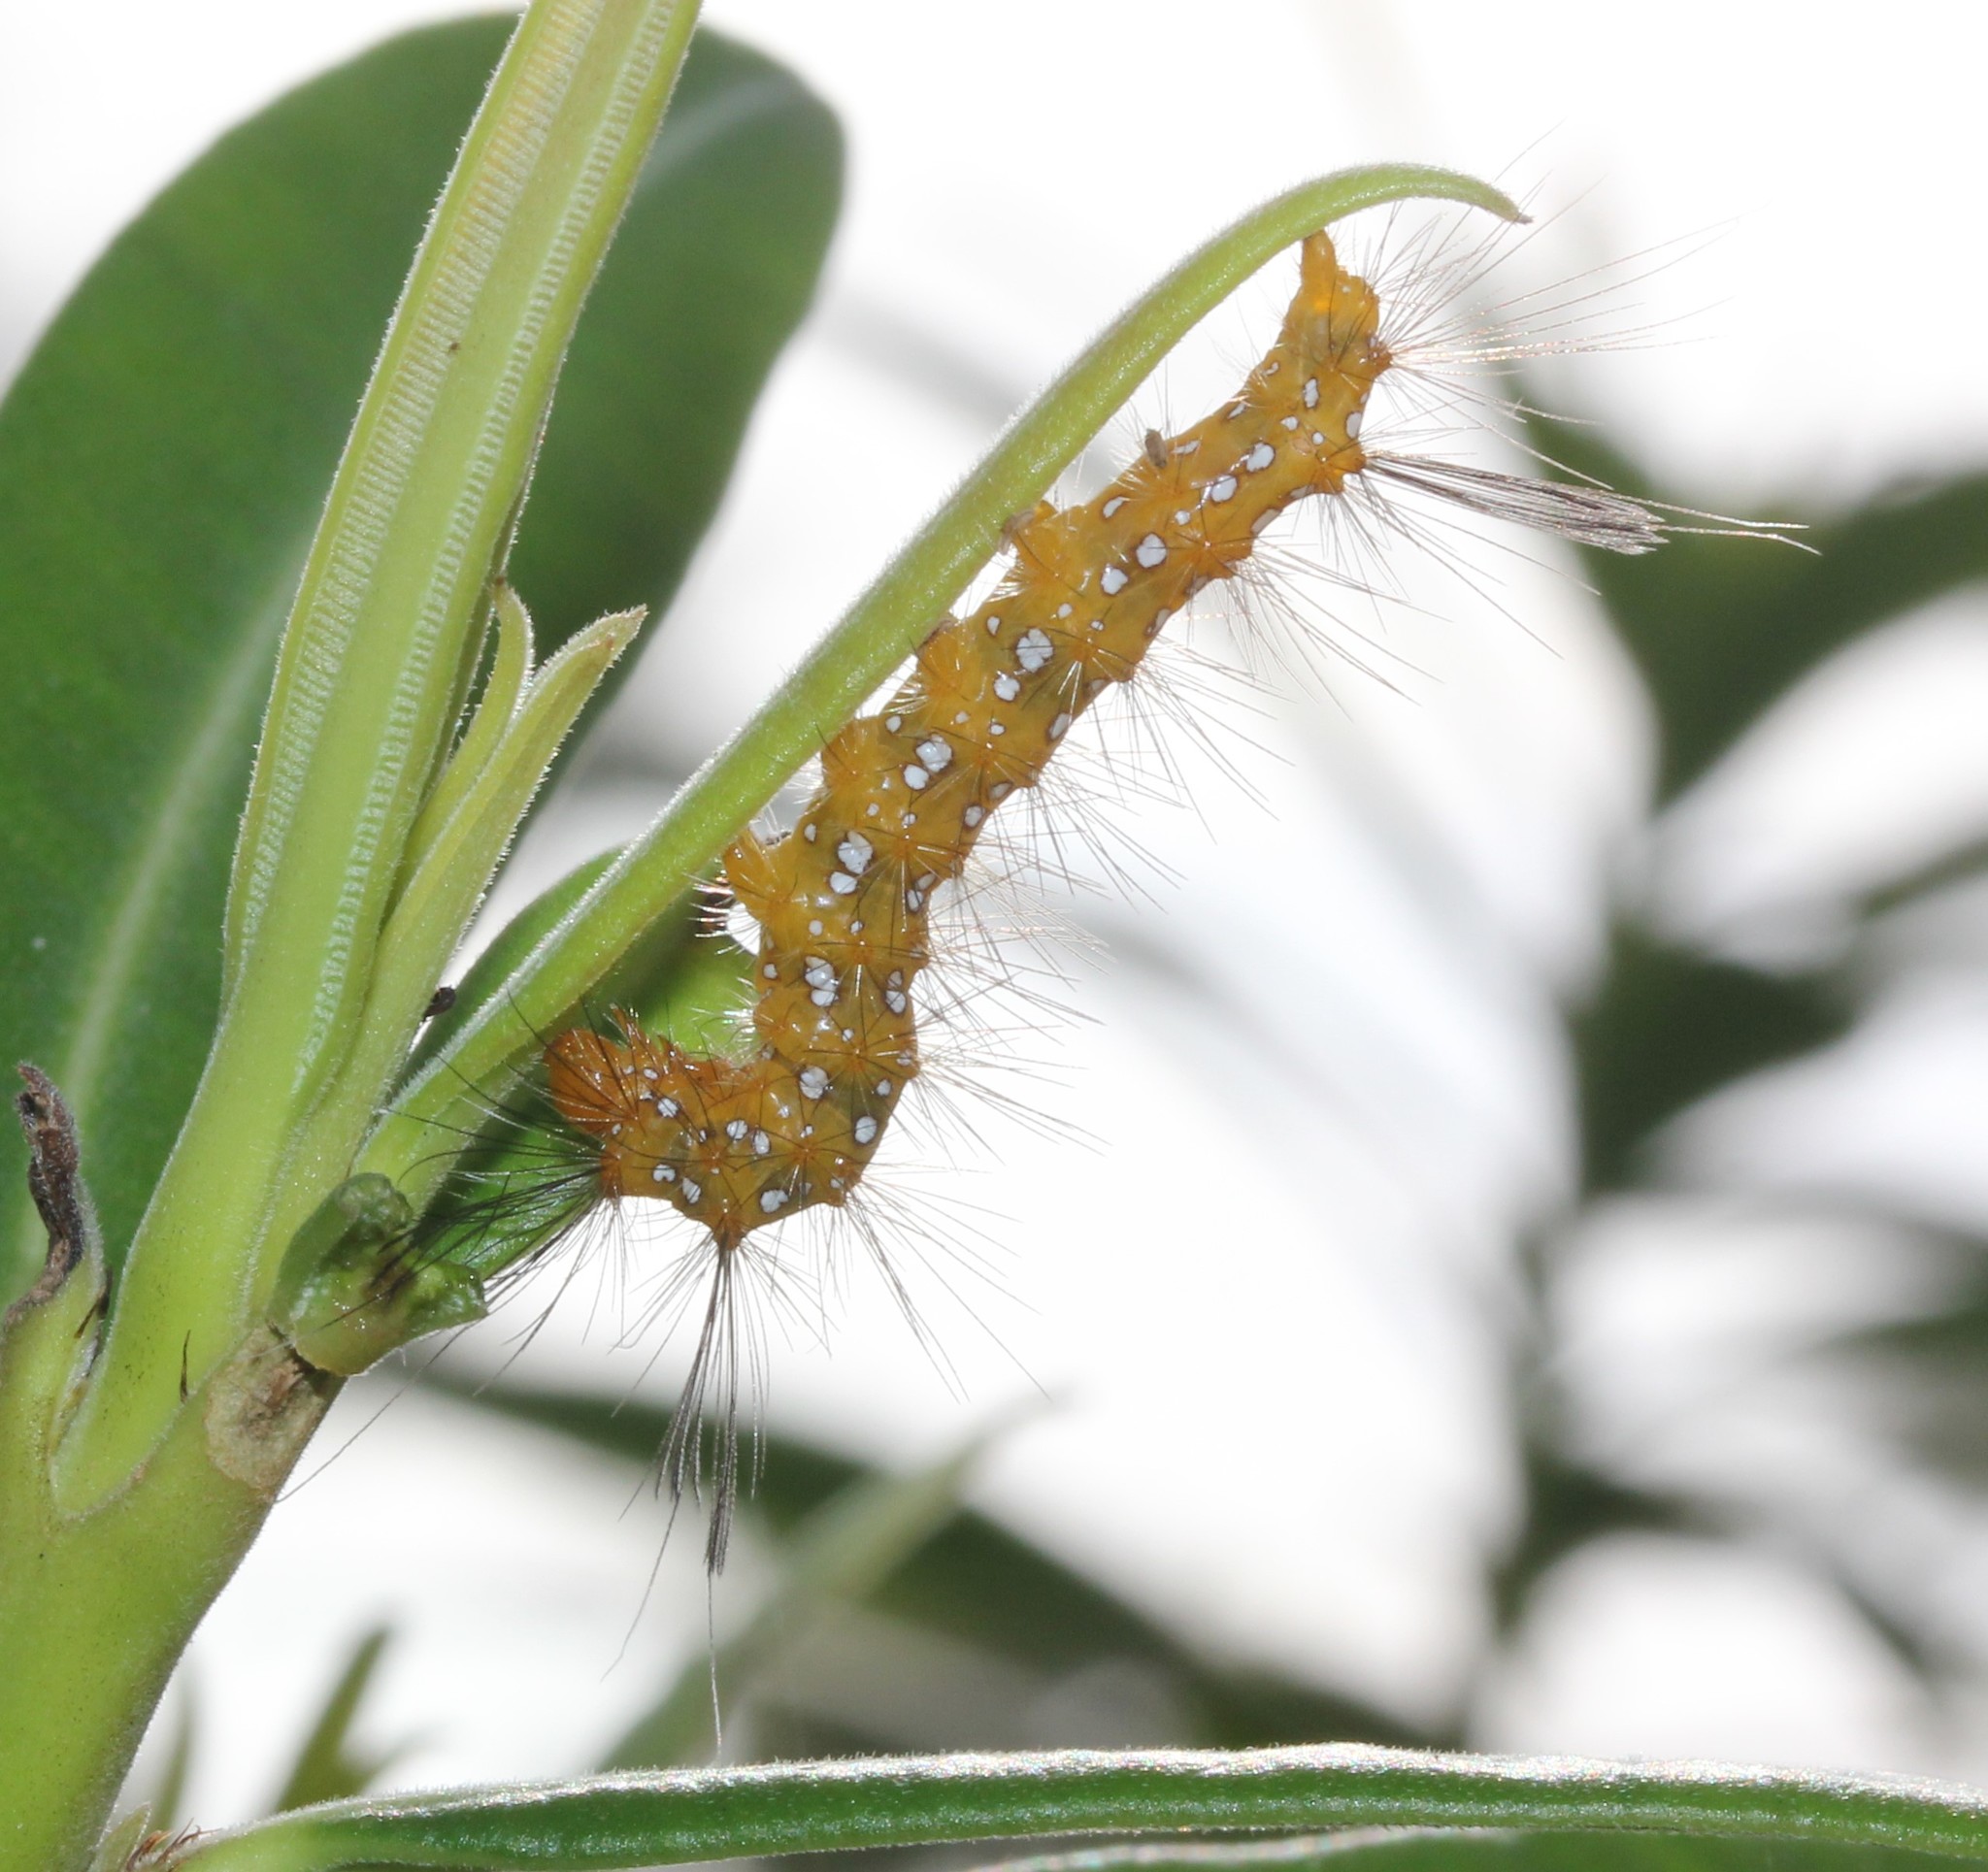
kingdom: Animalia
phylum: Arthropoda
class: Insecta
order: Lepidoptera
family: Erebidae
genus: Empyreuma
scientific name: Empyreuma pugione
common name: Spotted oleander caterpillar moth
